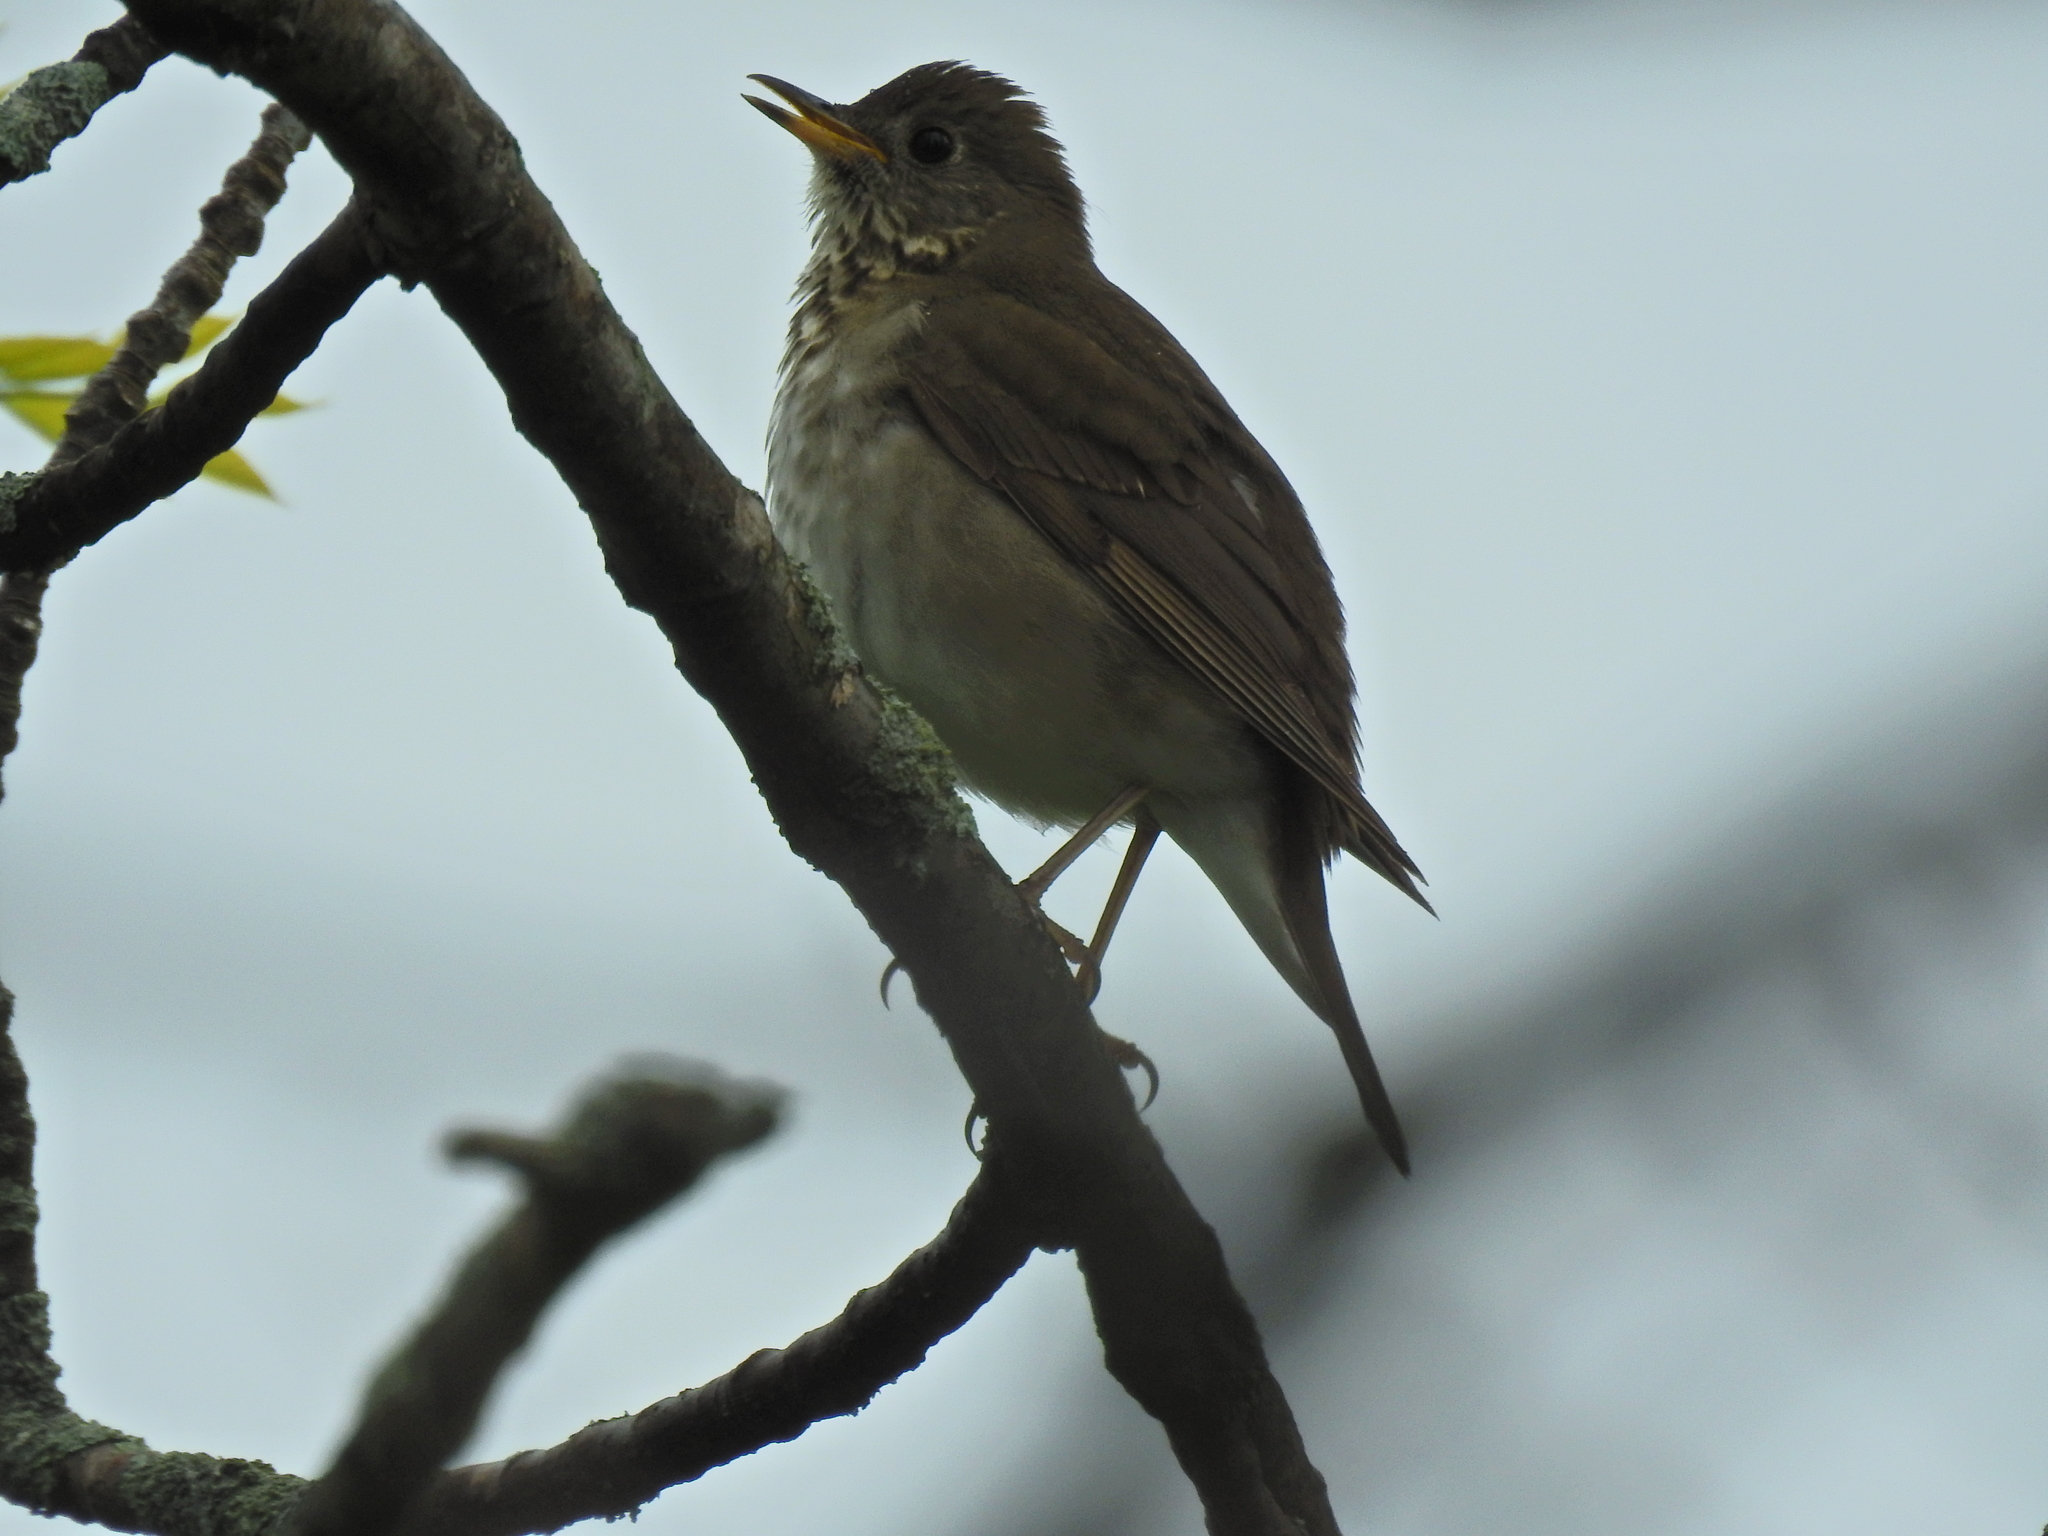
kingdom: Animalia
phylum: Chordata
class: Aves
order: Passeriformes
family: Turdidae
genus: Catharus
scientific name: Catharus minimus
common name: Grey-cheeked thrush
